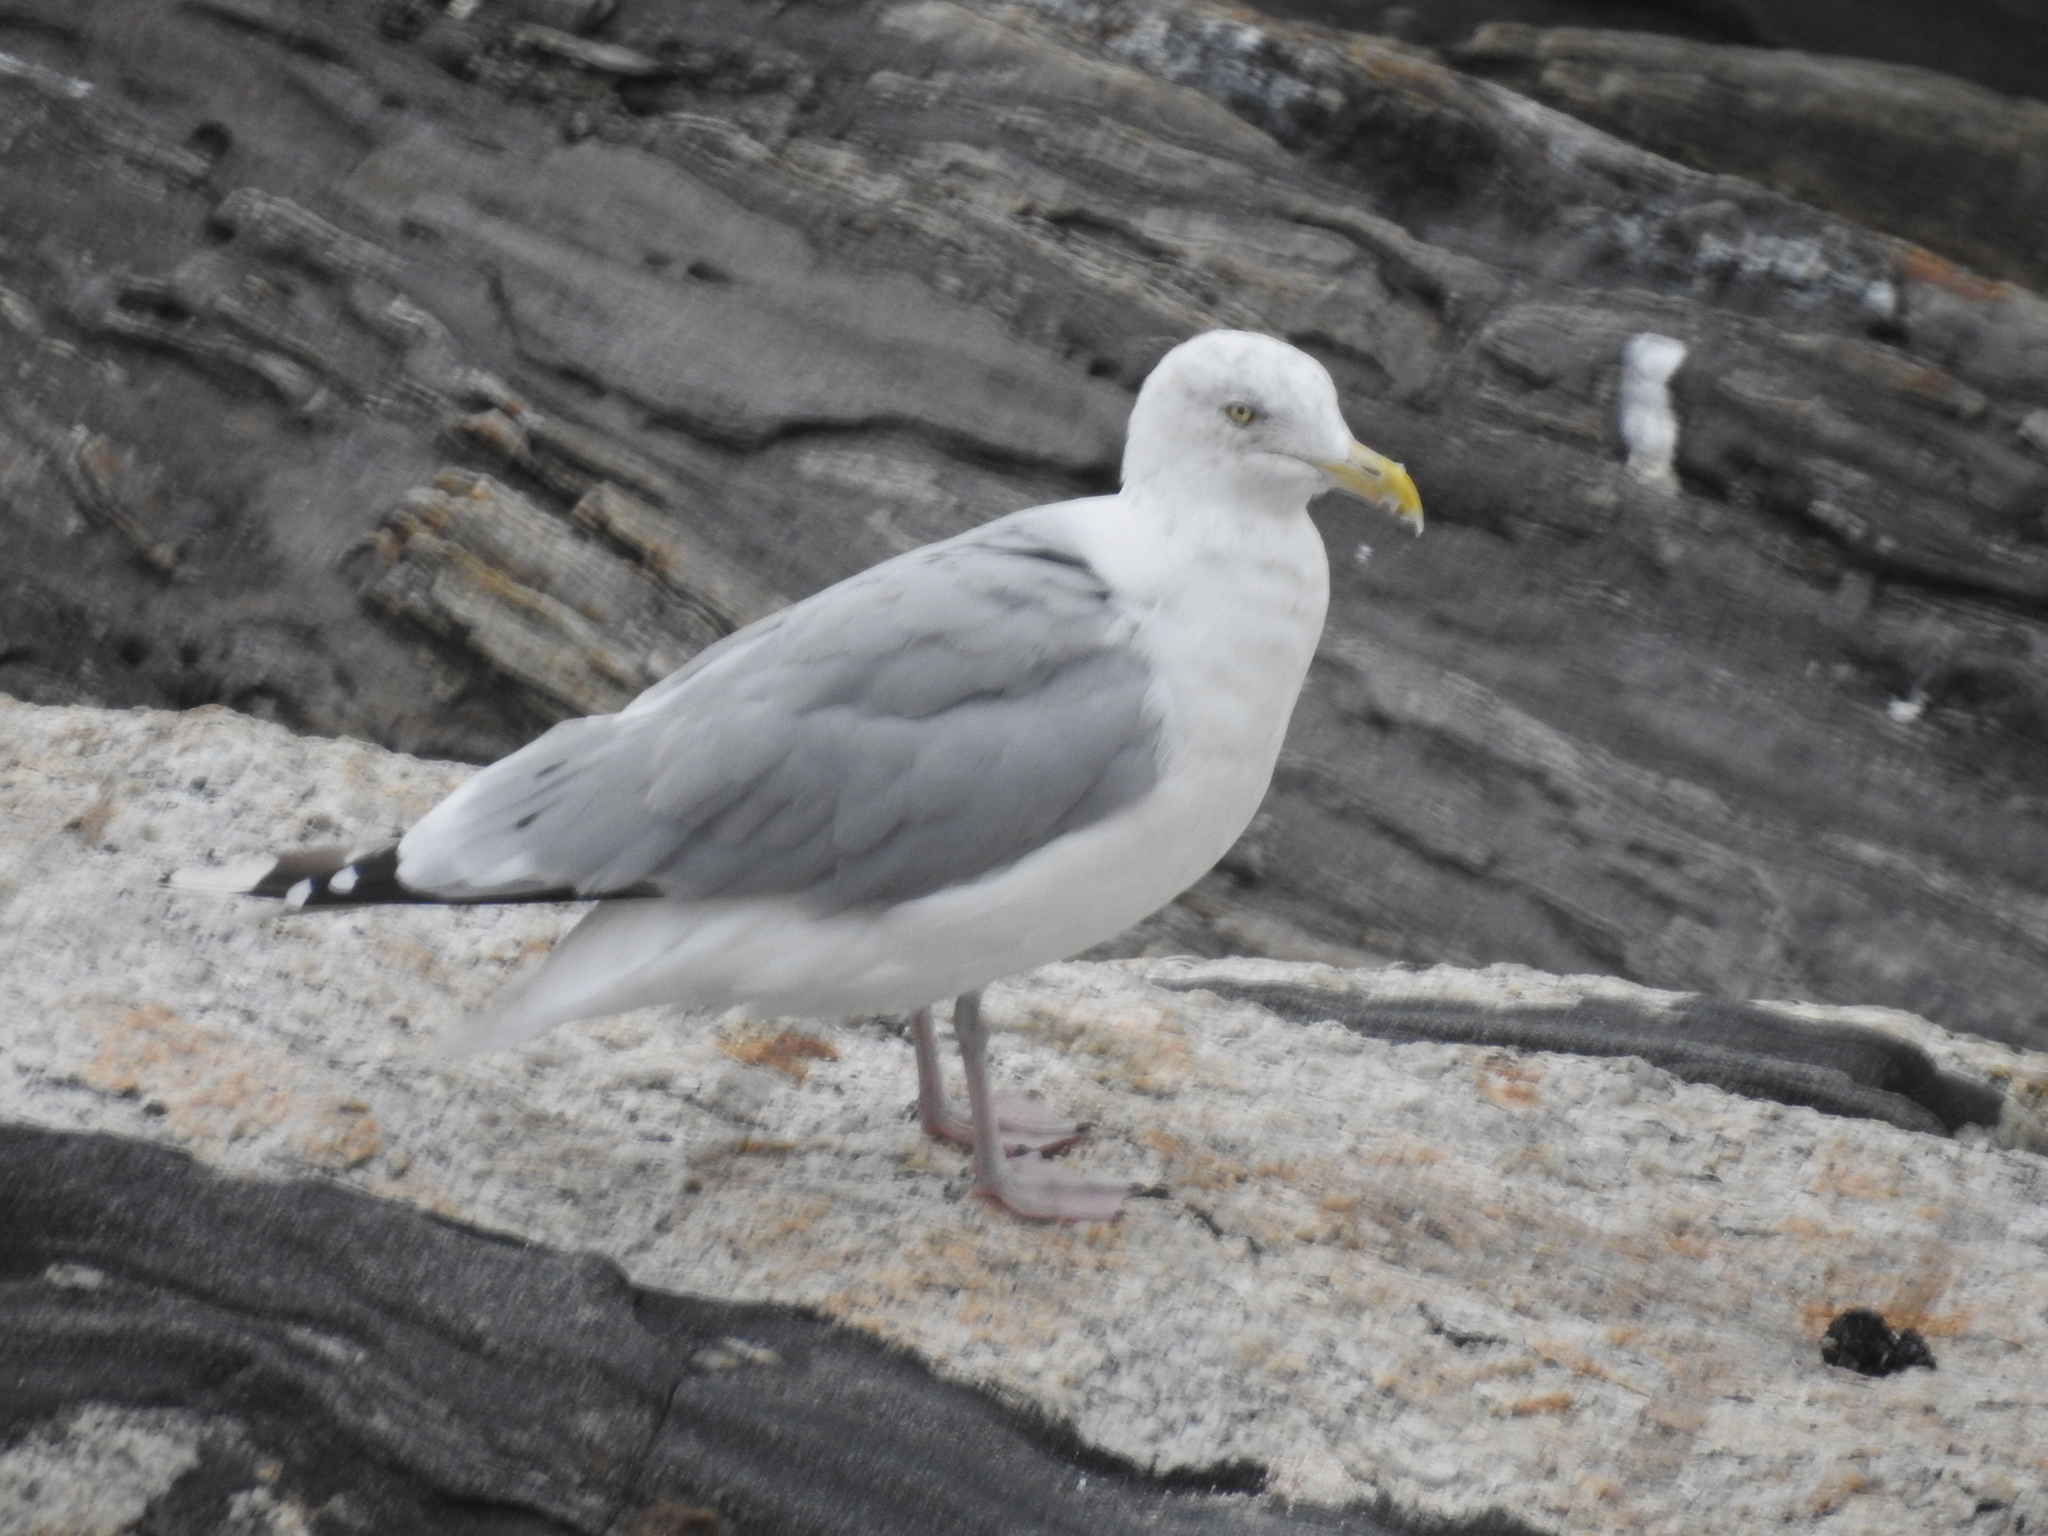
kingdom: Animalia
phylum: Chordata
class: Aves
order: Charadriiformes
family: Laridae
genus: Larus
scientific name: Larus argentatus
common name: Herring gull
